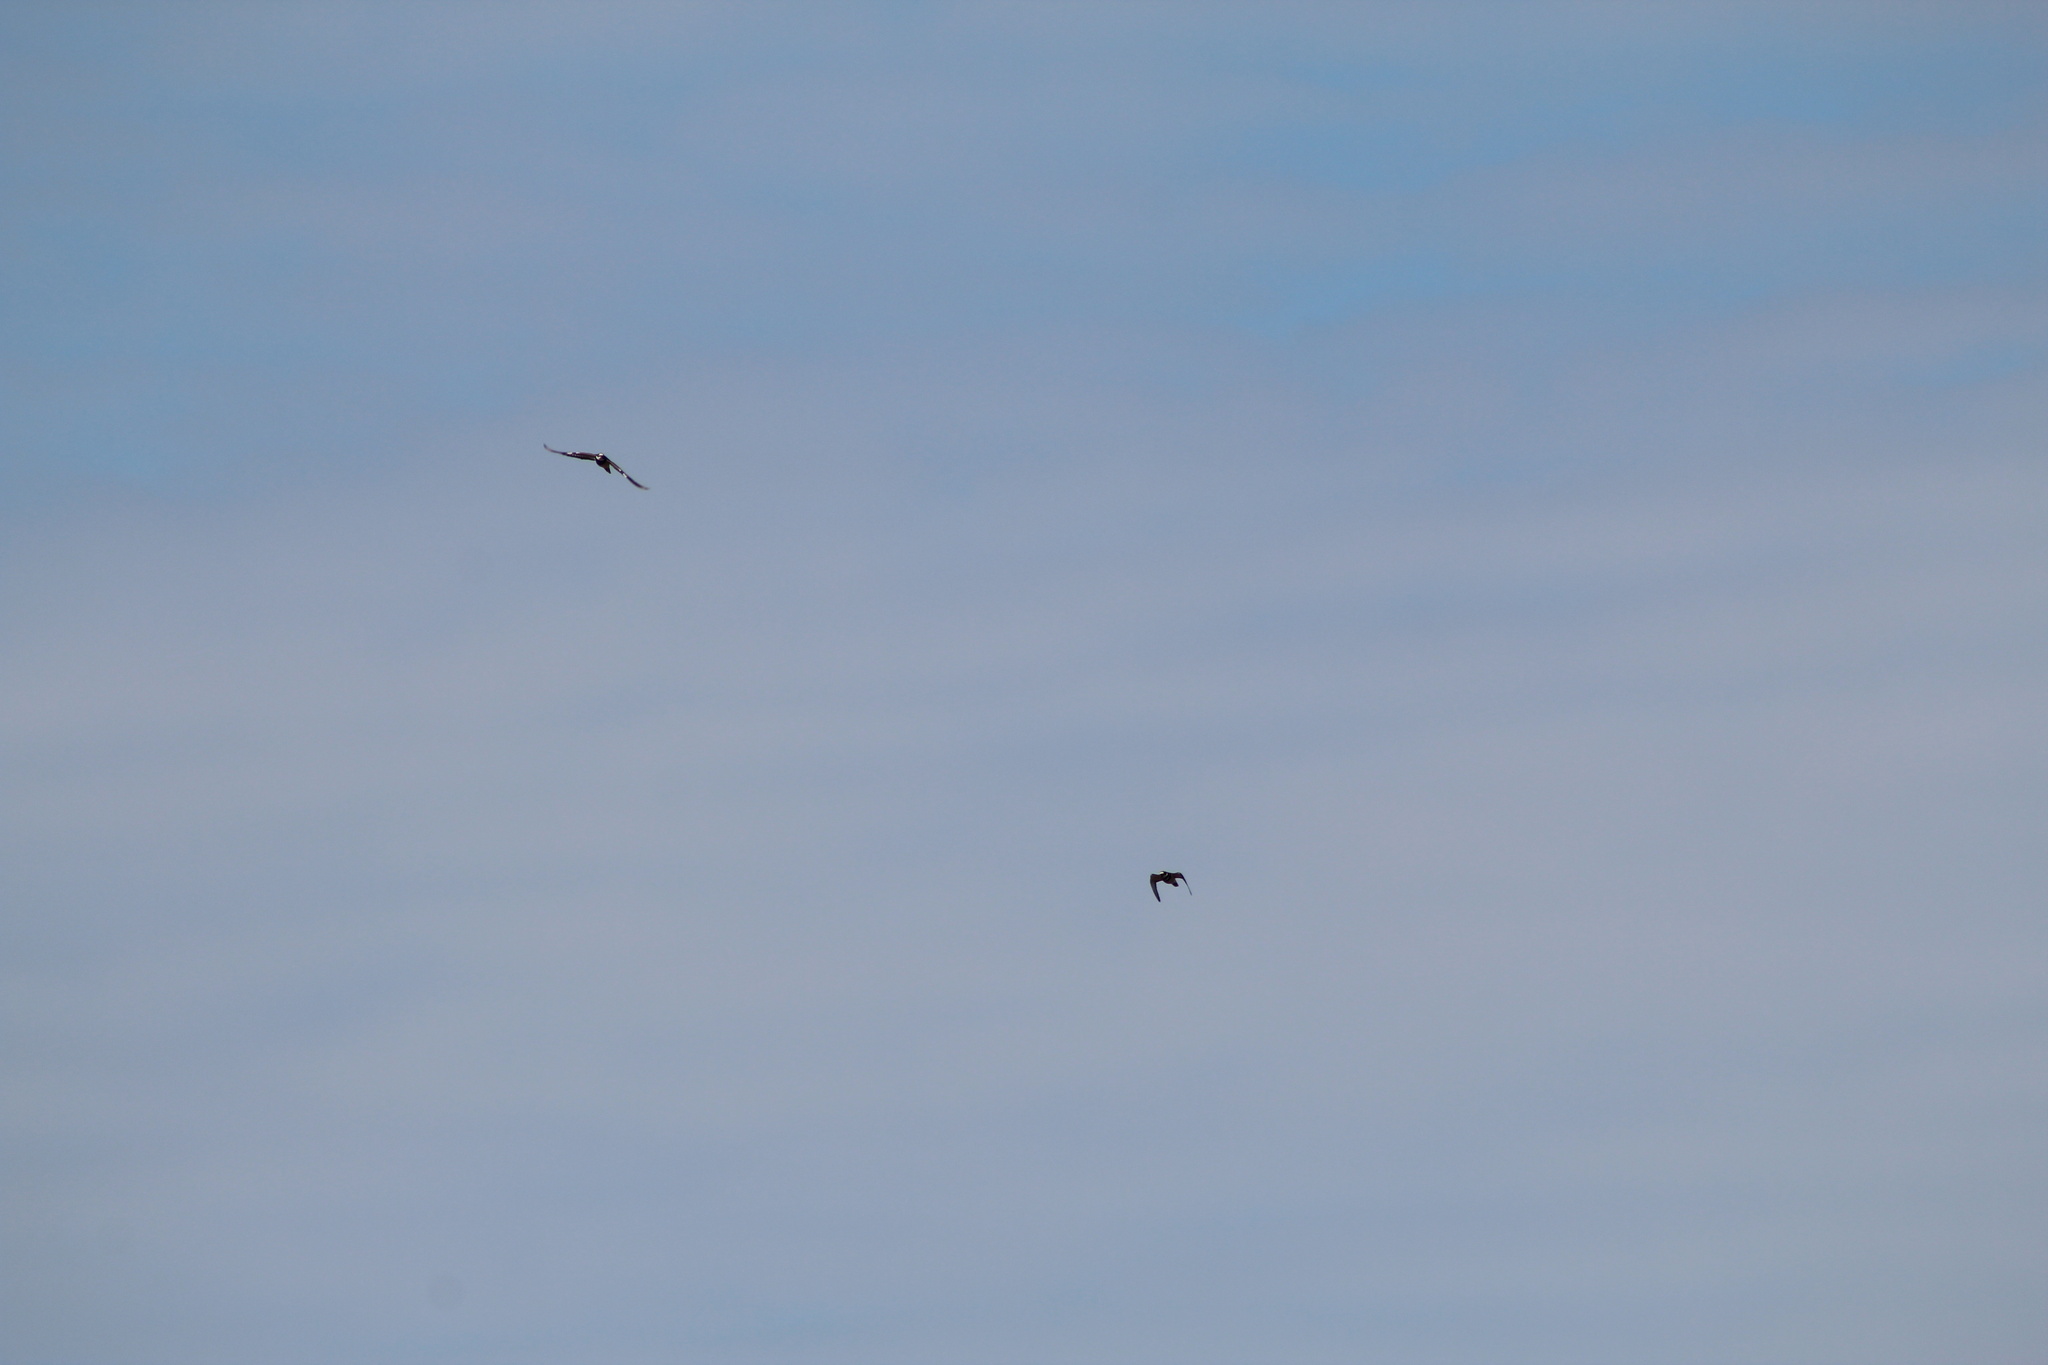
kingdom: Animalia
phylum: Chordata
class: Aves
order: Columbiformes
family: Columbidae
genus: Columba
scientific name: Columba livia
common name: Rock pigeon
